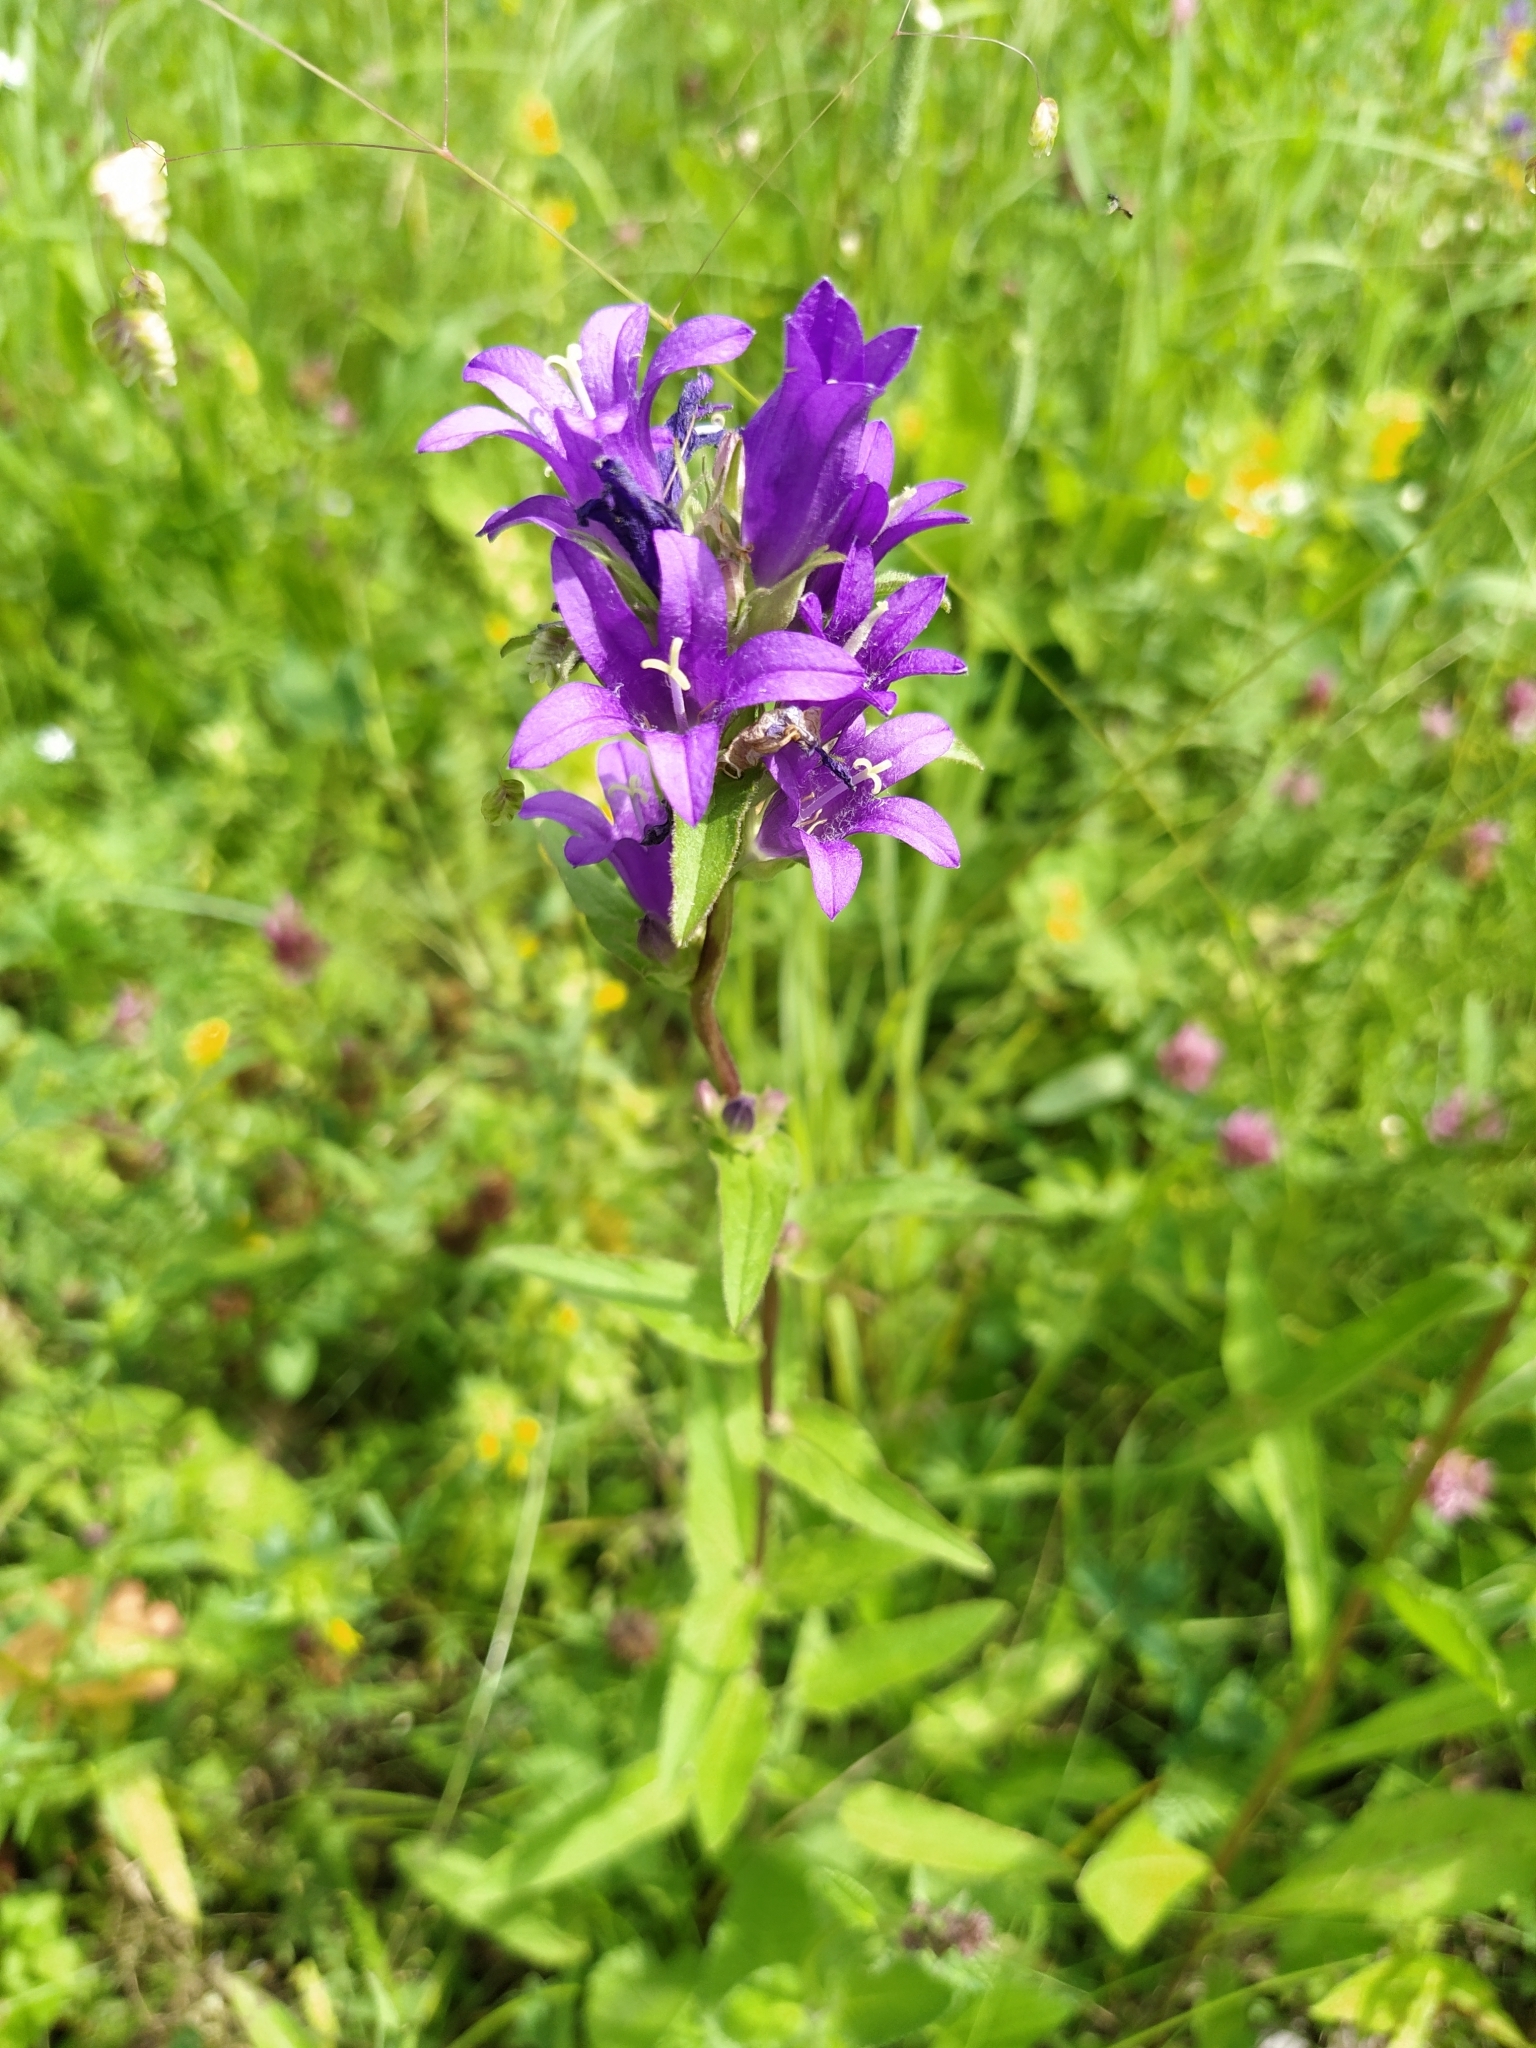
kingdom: Plantae
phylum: Tracheophyta
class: Magnoliopsida
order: Asterales
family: Campanulaceae
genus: Campanula
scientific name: Campanula glomerata
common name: Clustered bellflower
